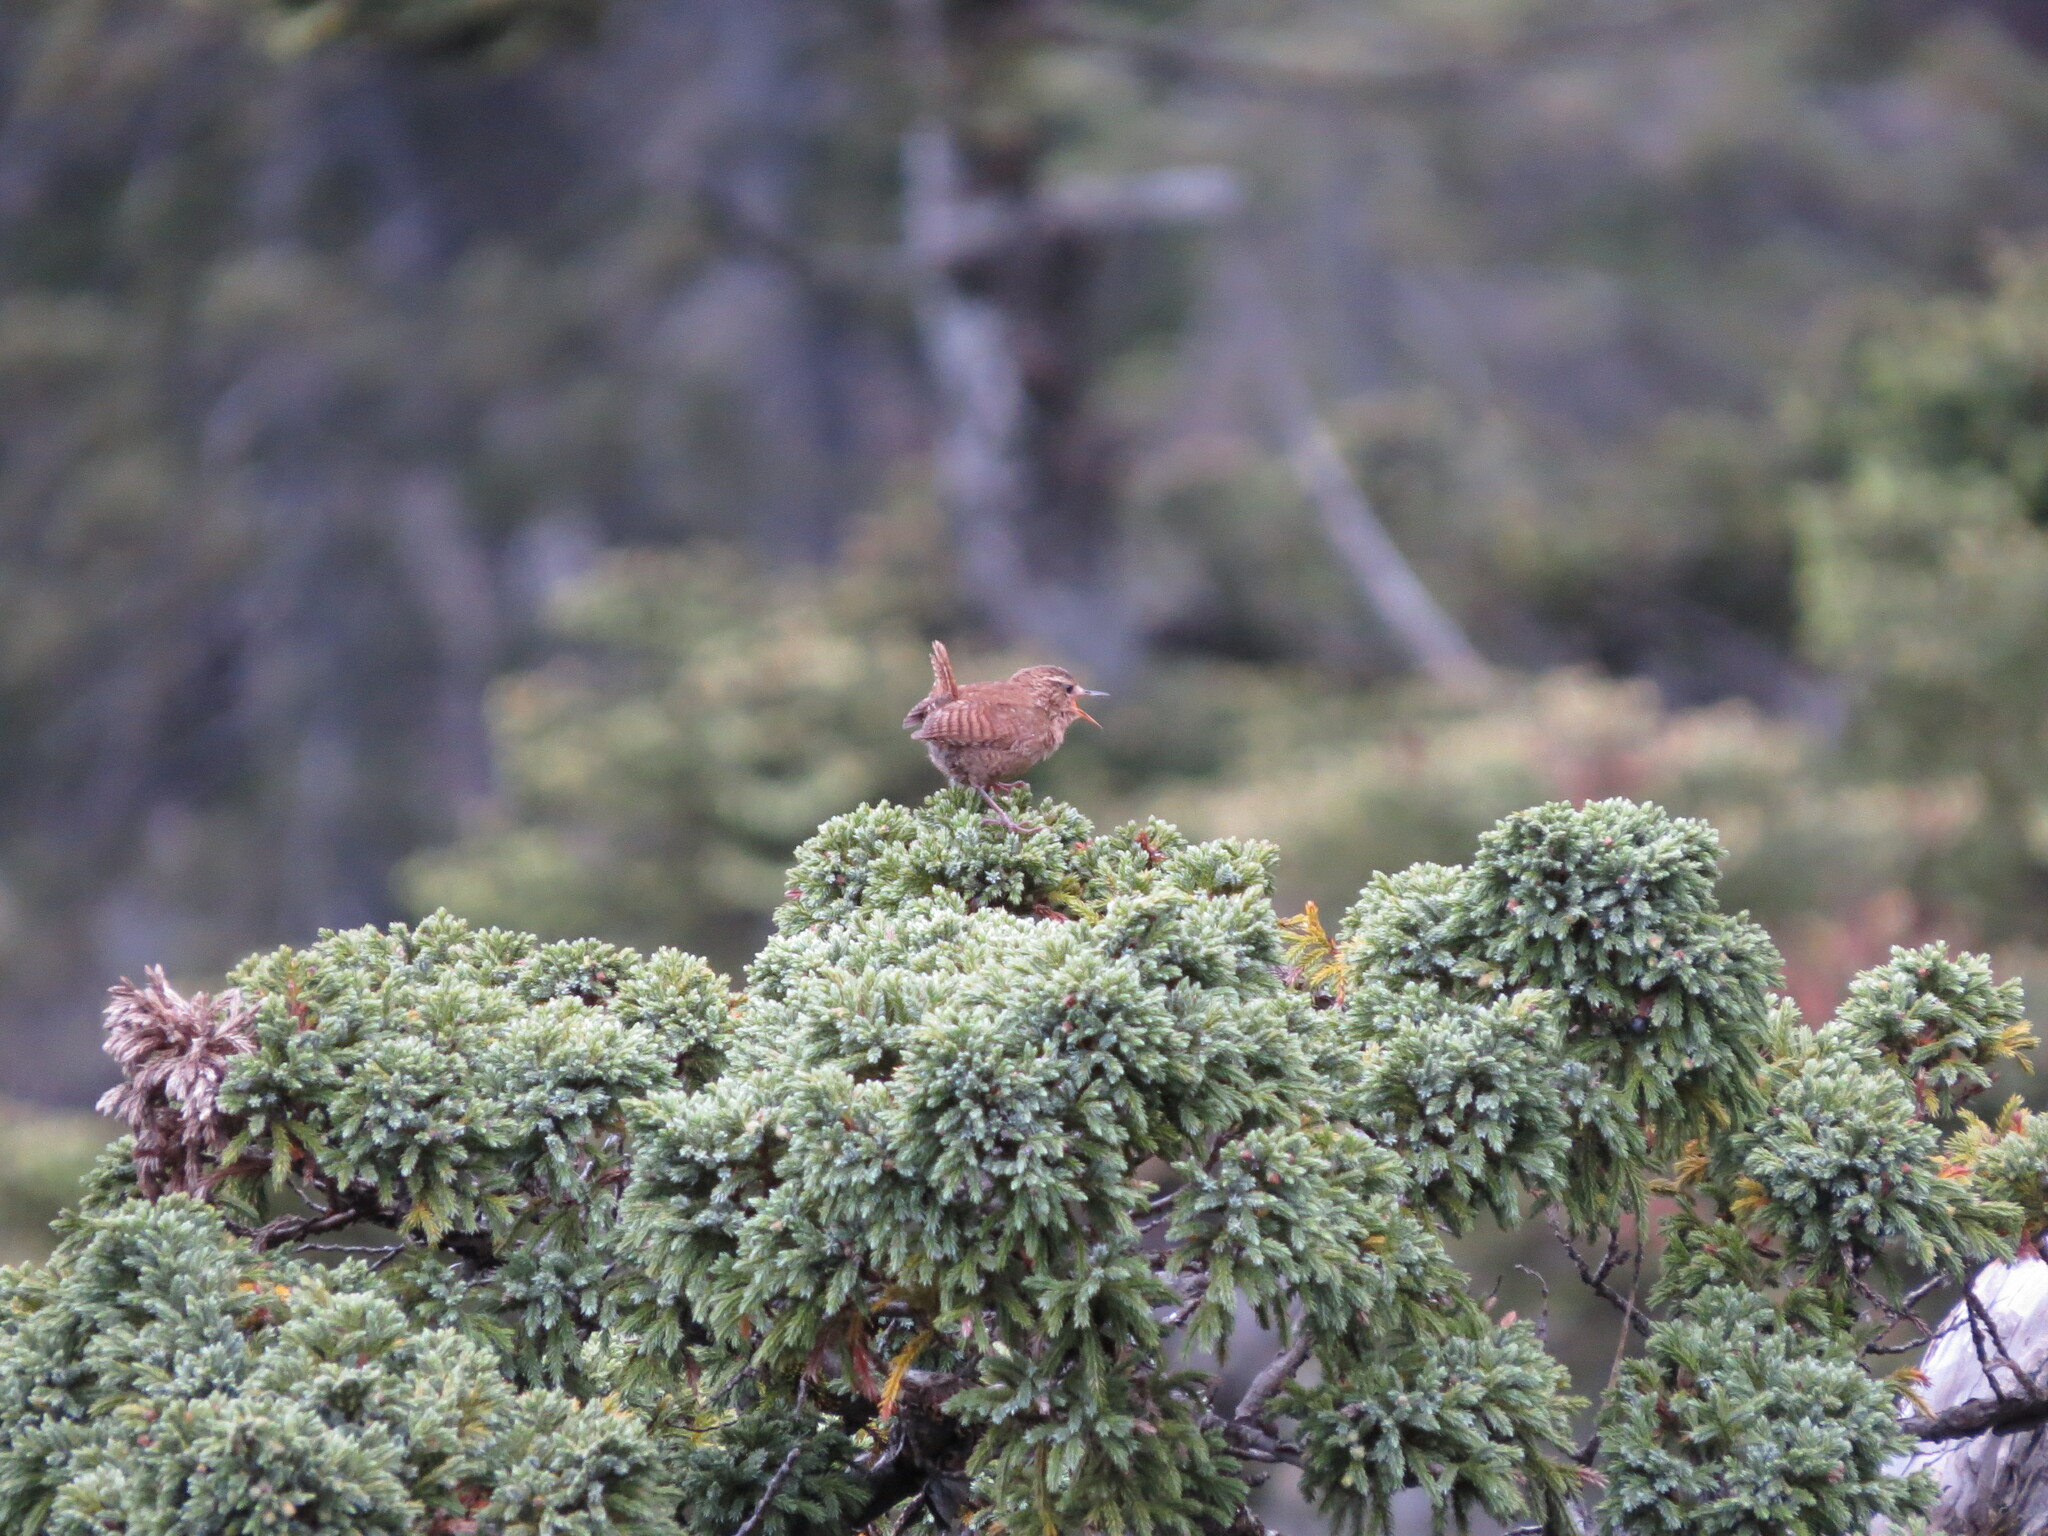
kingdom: Animalia
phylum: Chordata
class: Aves
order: Passeriformes
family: Troglodytidae
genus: Troglodytes
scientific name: Troglodytes troglodytes
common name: Eurasian wren
